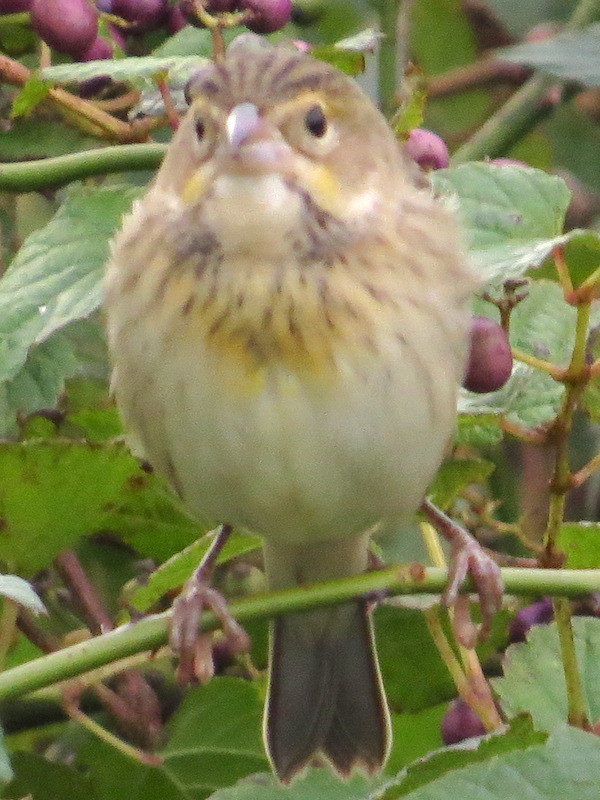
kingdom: Animalia
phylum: Chordata
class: Aves
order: Passeriformes
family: Cardinalidae
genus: Spiza
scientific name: Spiza americana
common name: Dickcissel
